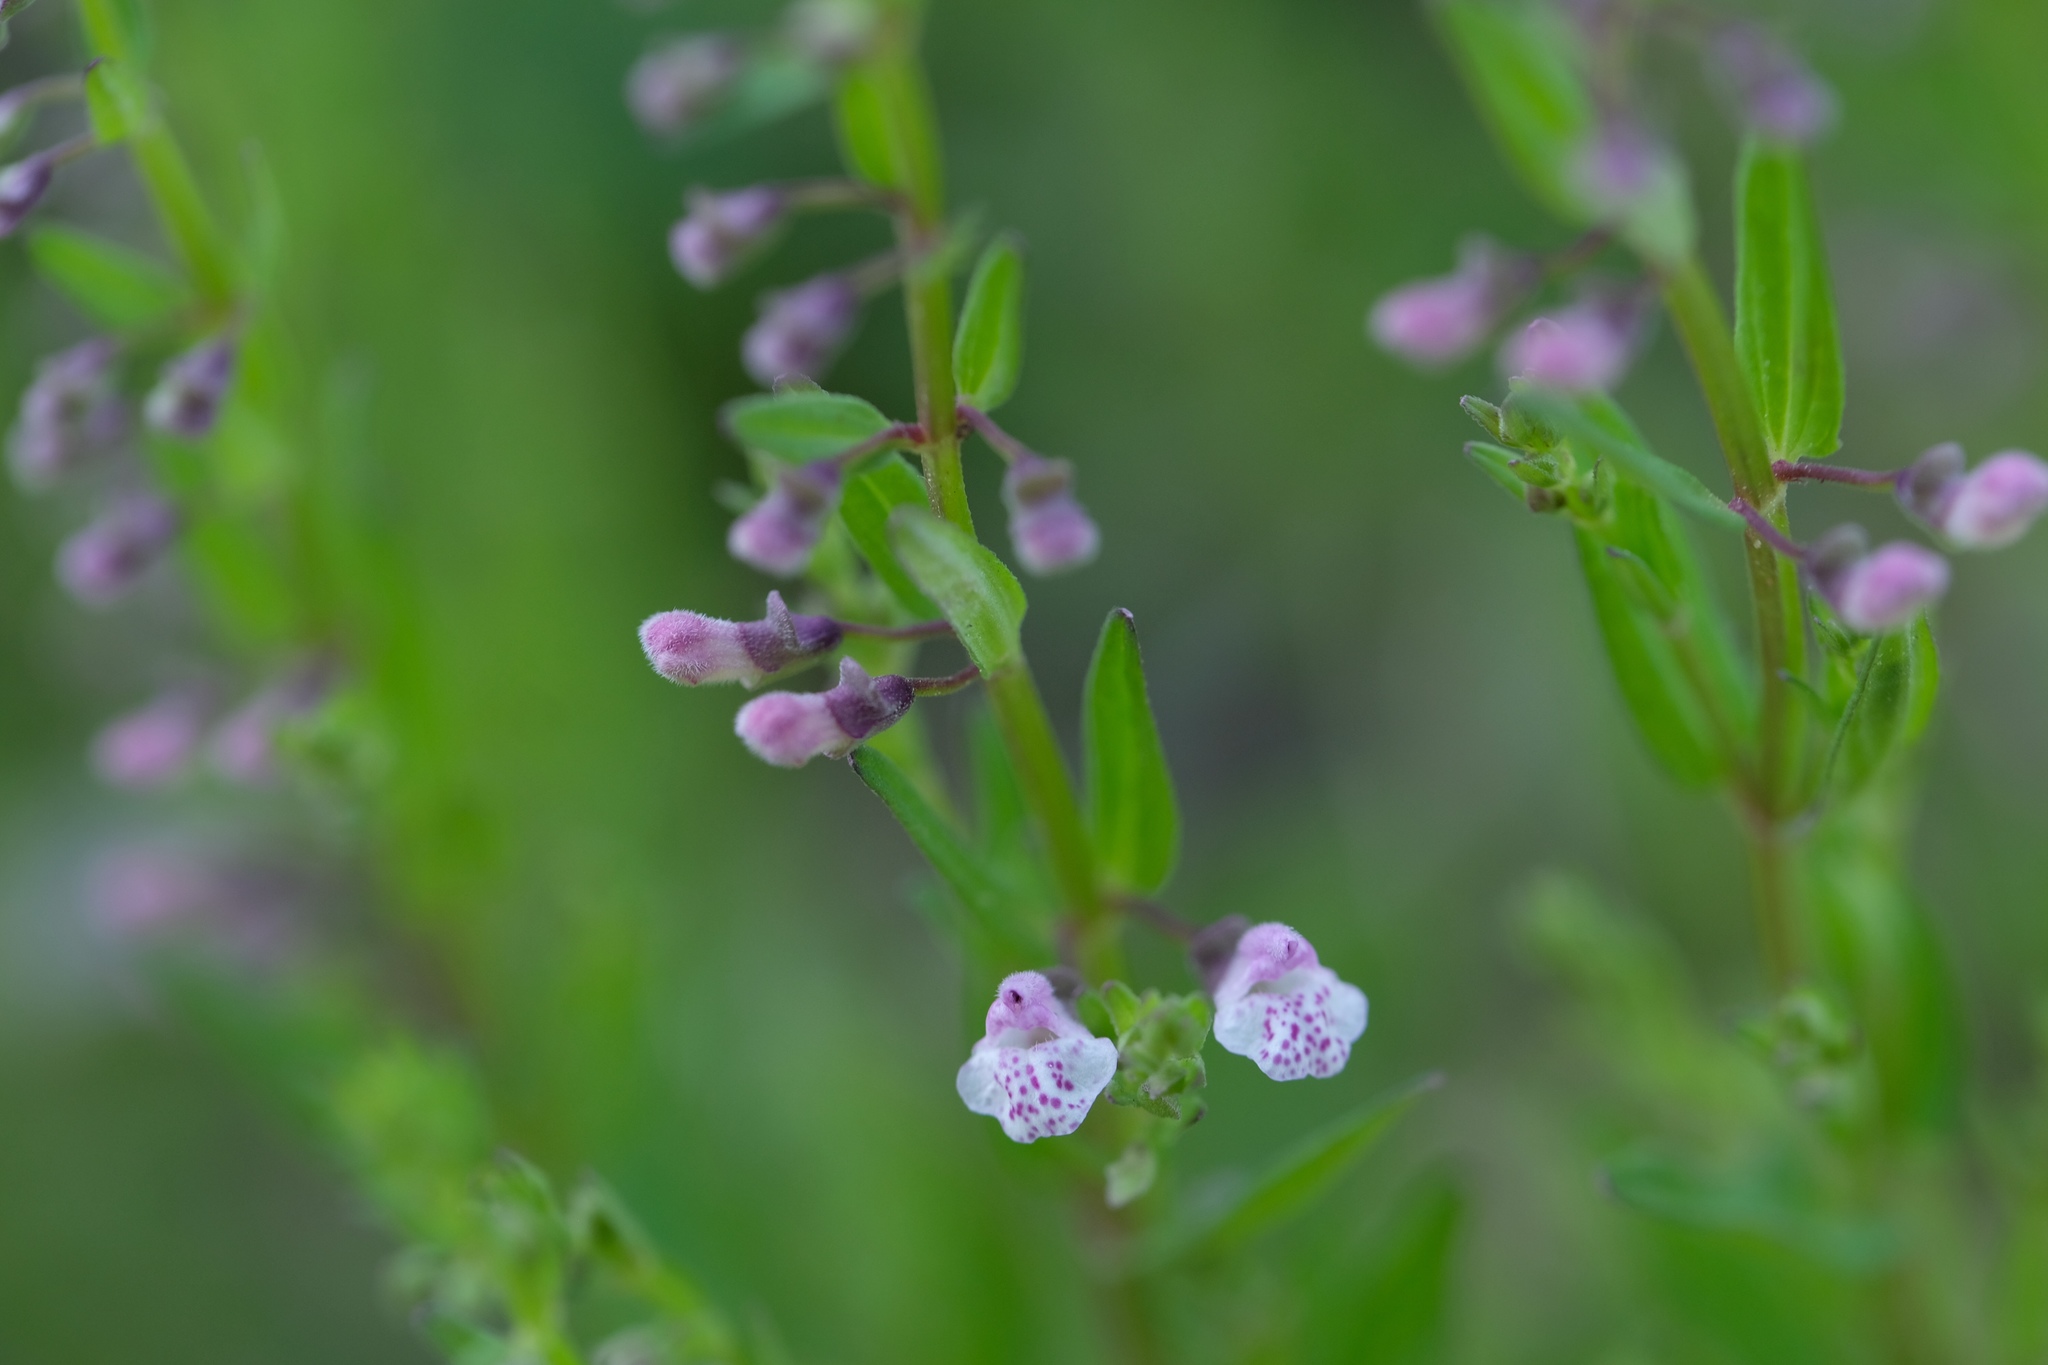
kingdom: Plantae
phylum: Tracheophyta
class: Magnoliopsida
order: Lamiales
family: Lamiaceae
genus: Scutellaria
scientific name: Scutellaria racemosa
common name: South american skullcap
